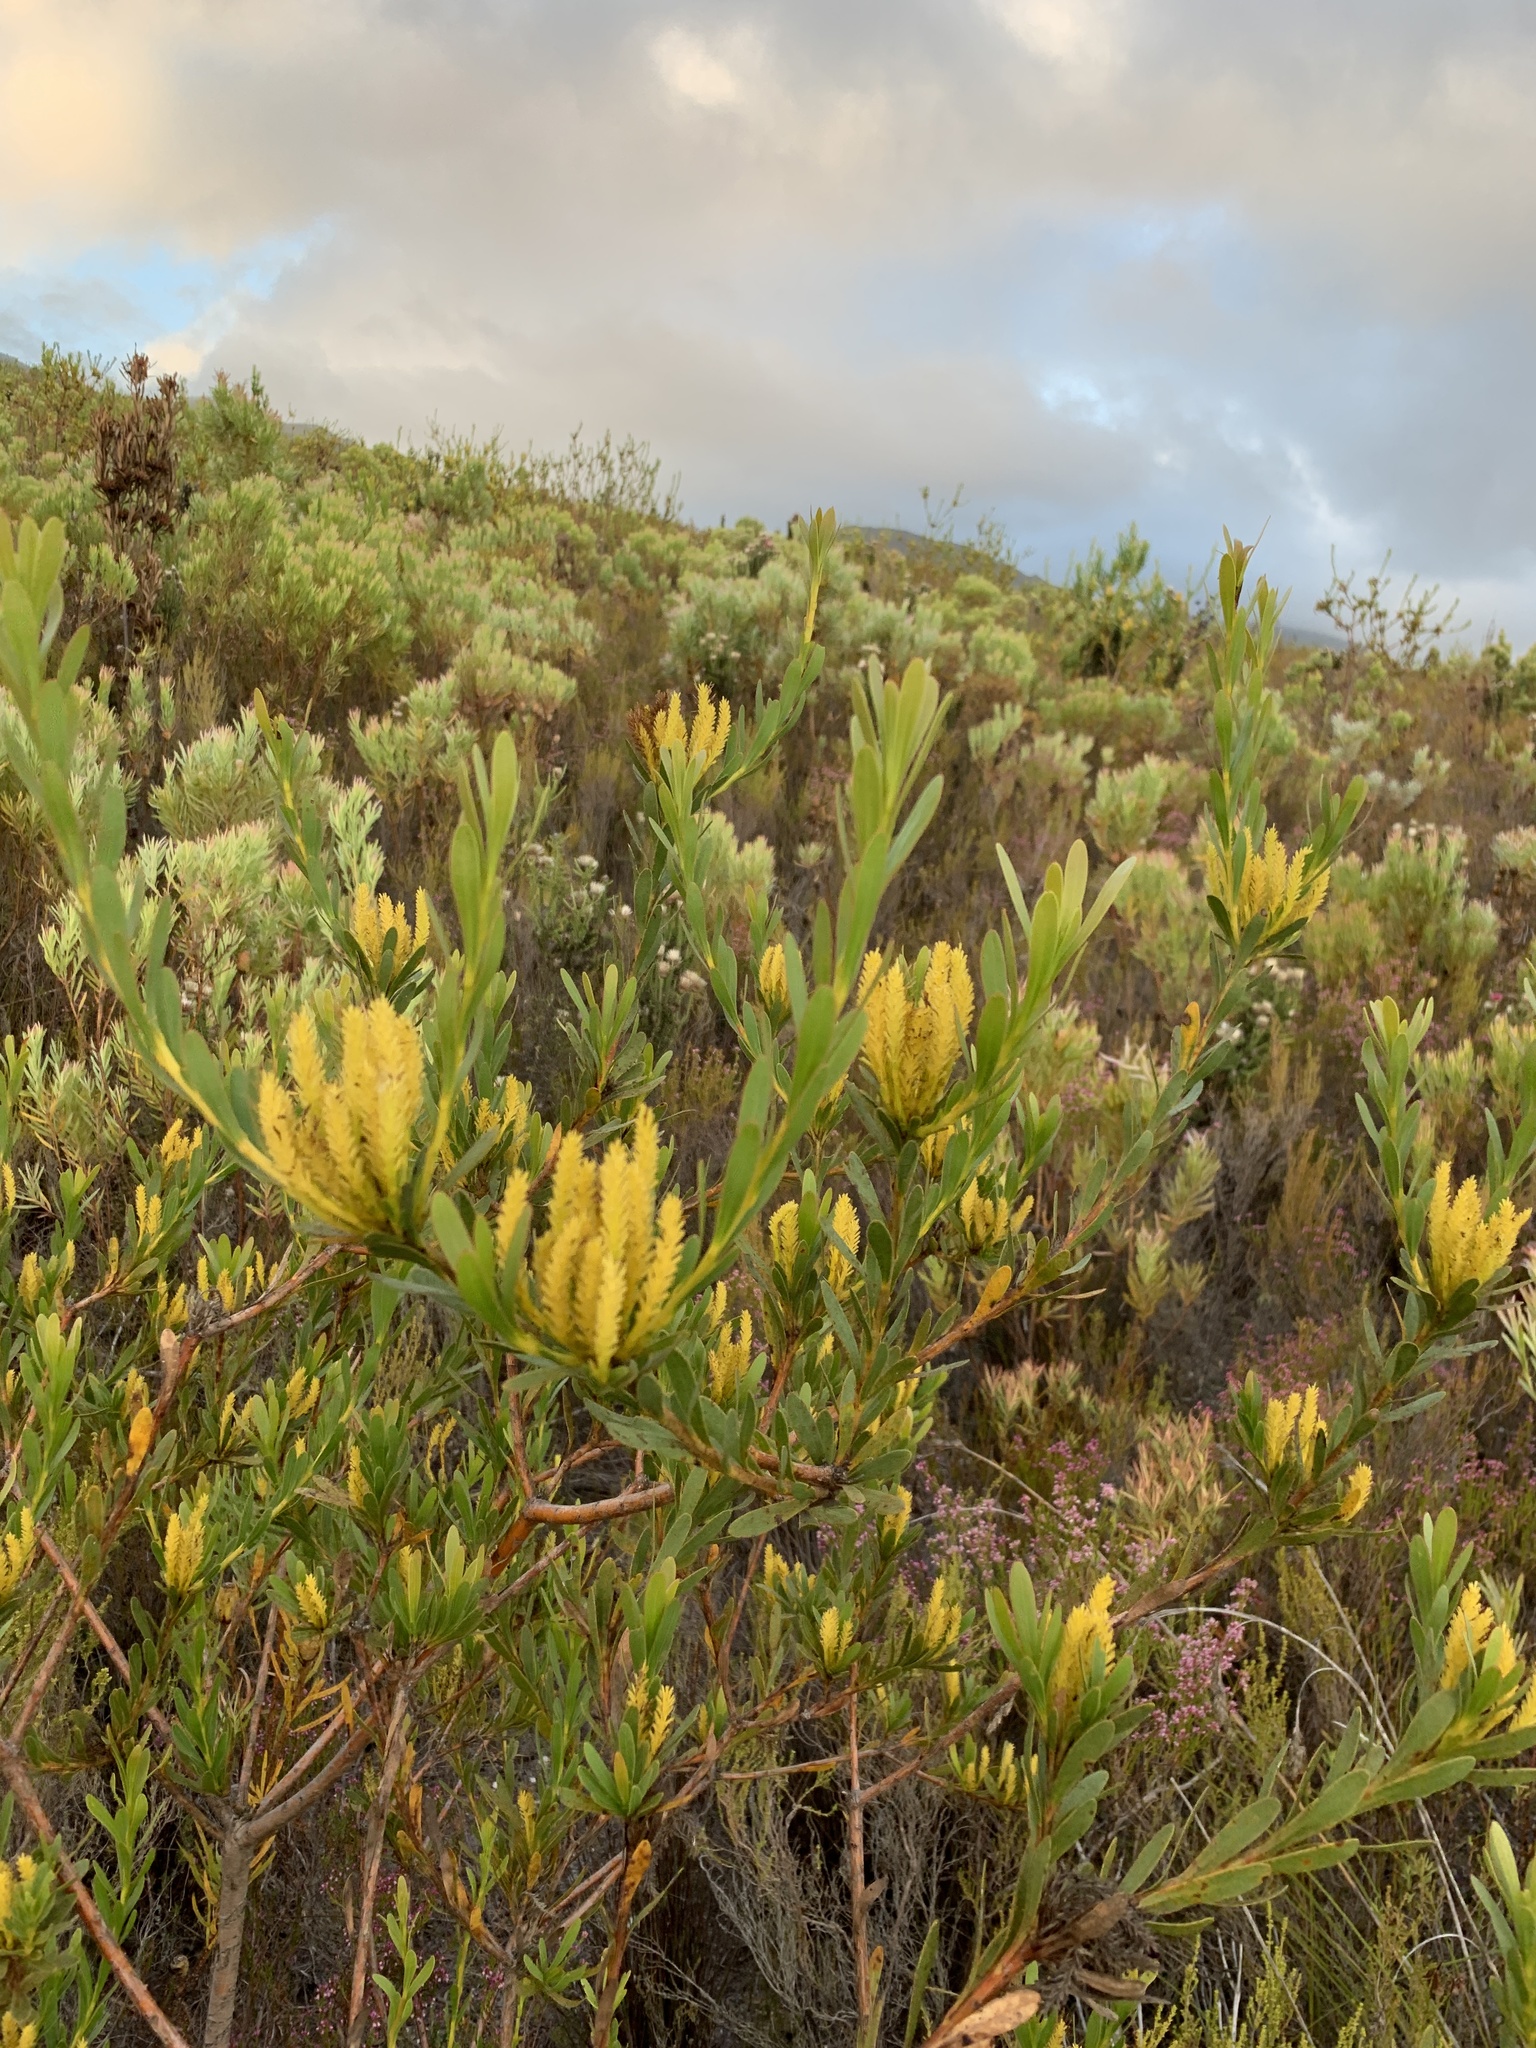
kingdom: Plantae
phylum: Tracheophyta
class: Magnoliopsida
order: Proteales
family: Proteaceae
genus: Aulax
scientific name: Aulax umbellata
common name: Broad-leaf featherbush
